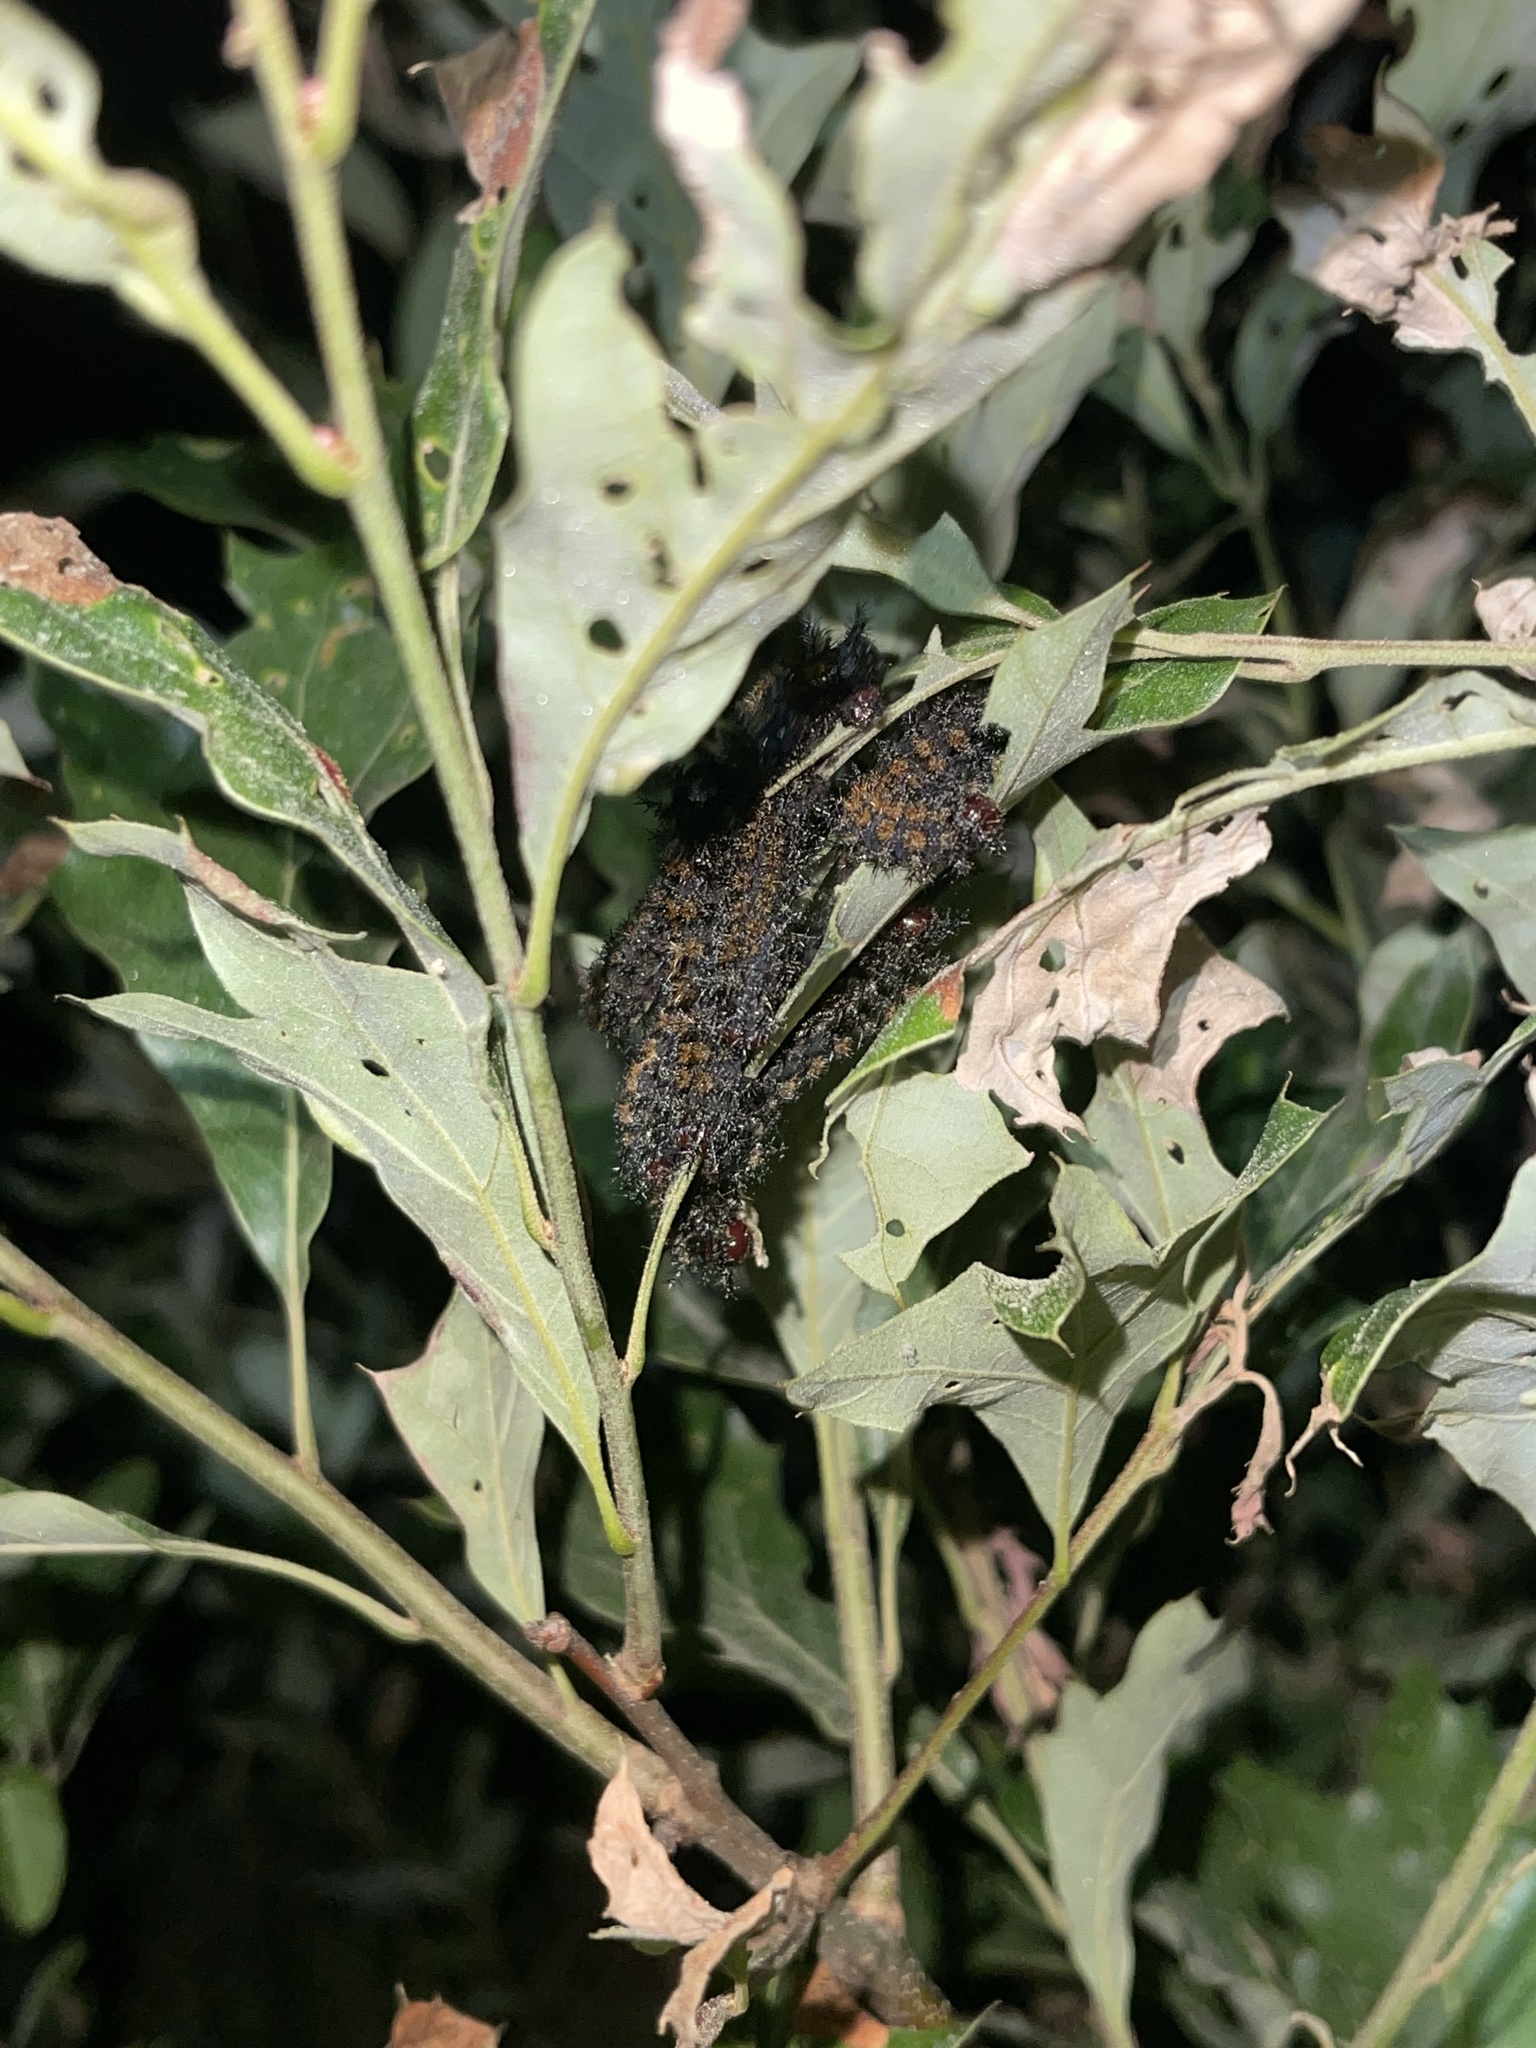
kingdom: Animalia
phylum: Arthropoda
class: Insecta
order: Lepidoptera
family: Saturniidae
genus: Hemileuca
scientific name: Hemileuca maia
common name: Eastern buckmoth
